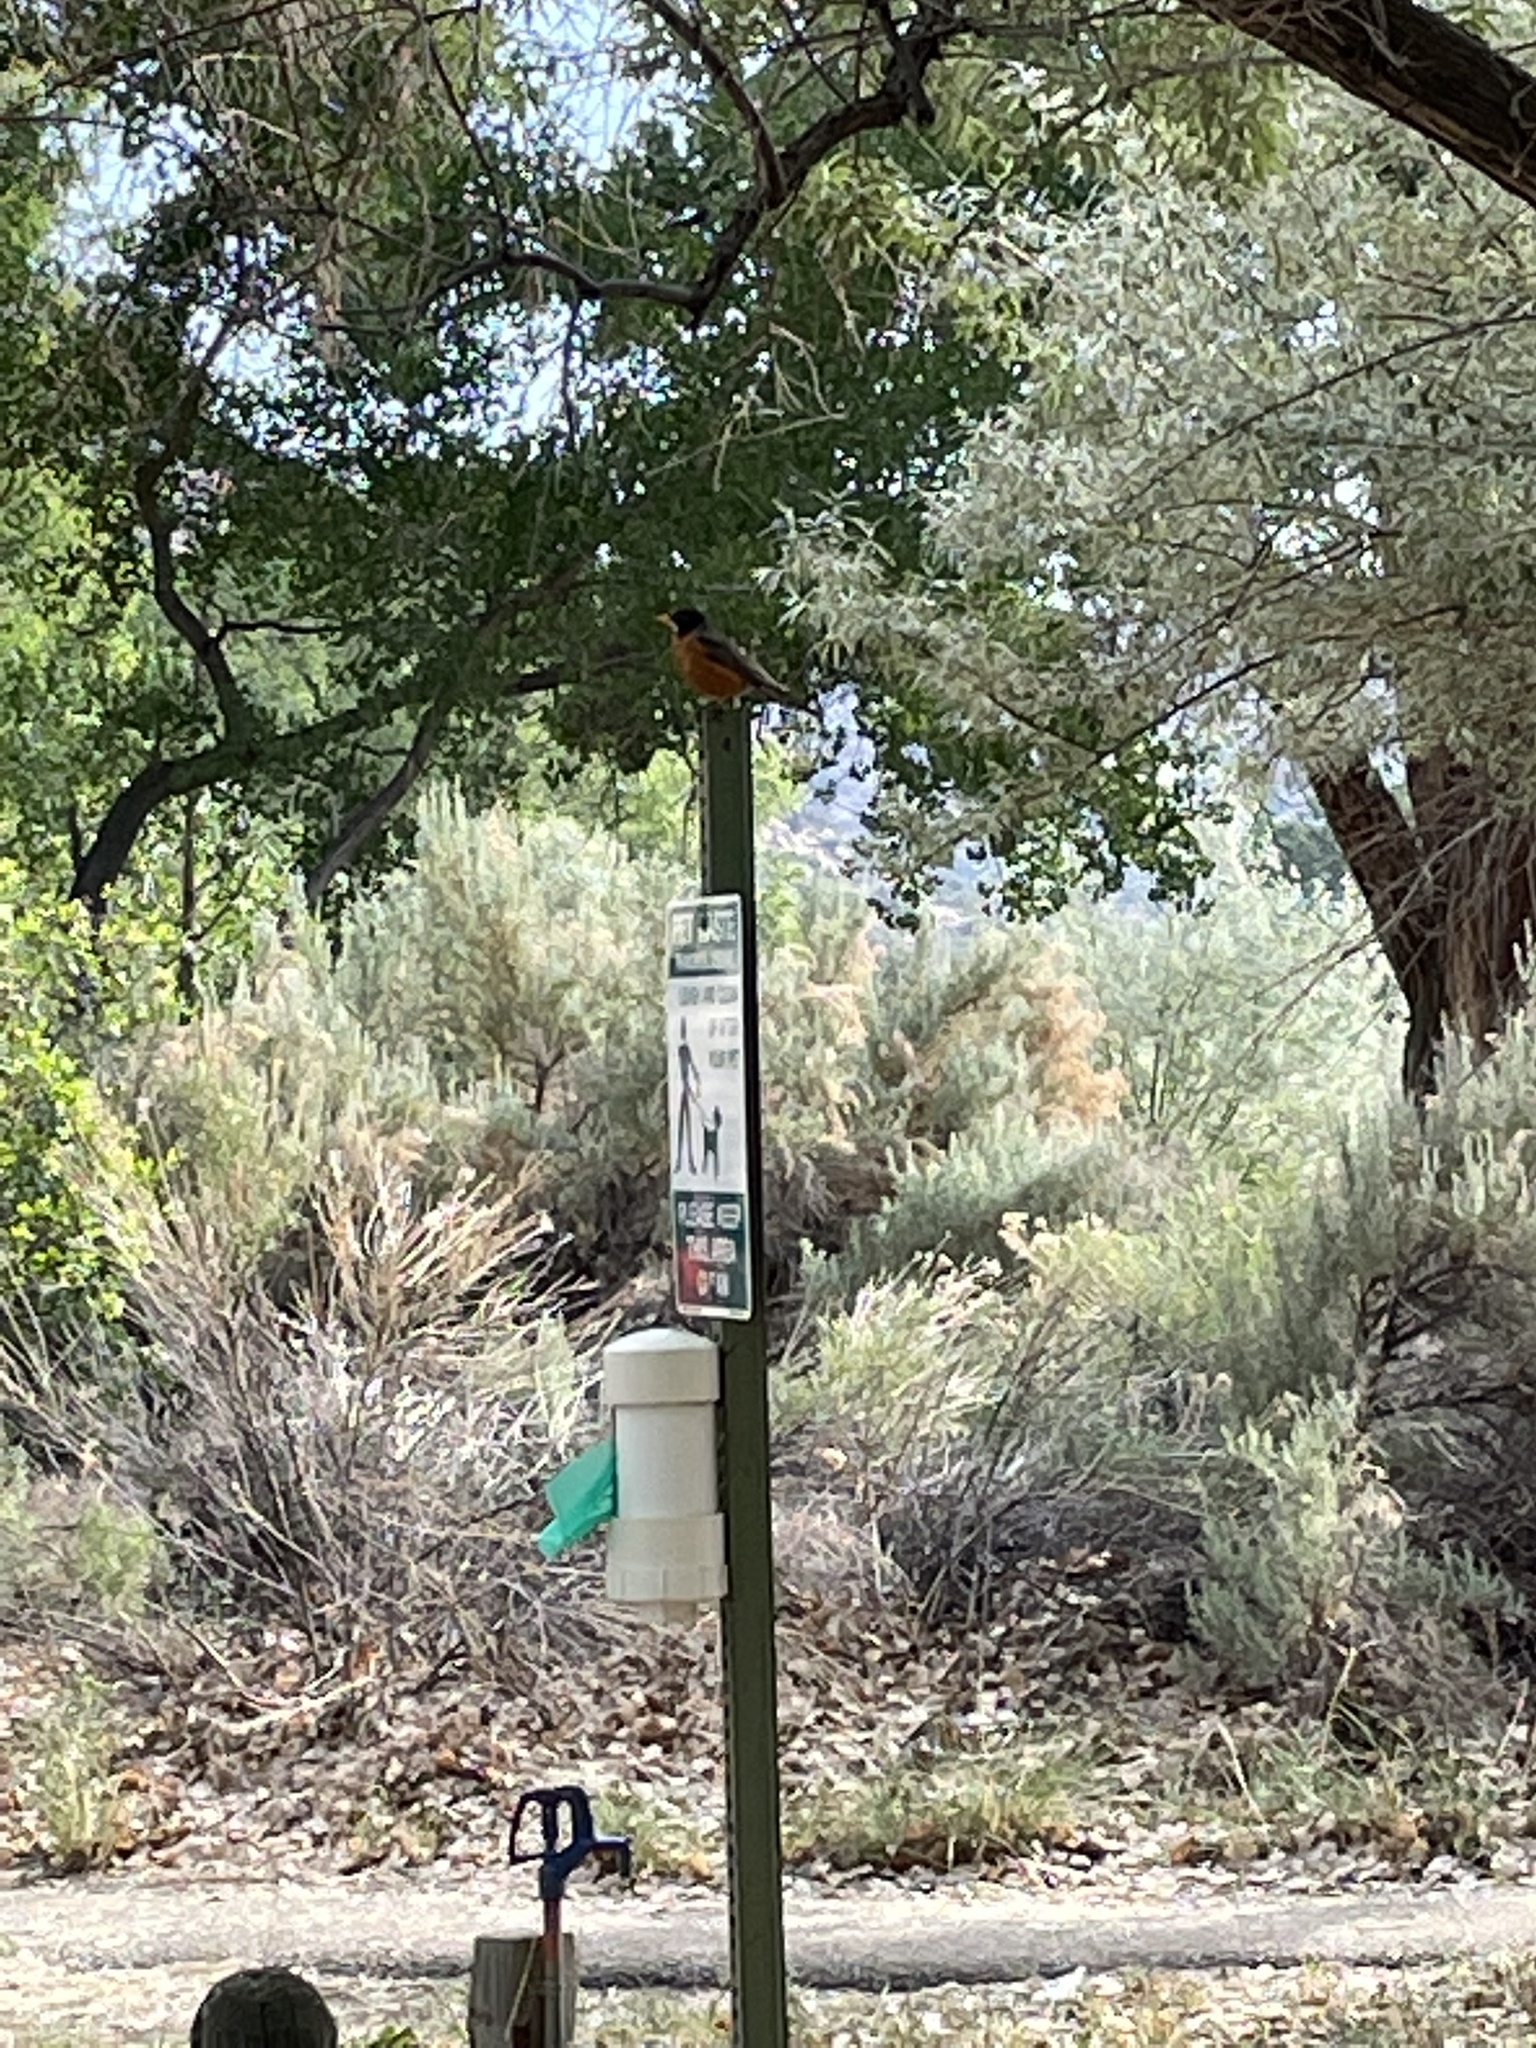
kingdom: Animalia
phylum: Chordata
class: Aves
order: Passeriformes
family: Turdidae
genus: Turdus
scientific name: Turdus migratorius
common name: American robin
